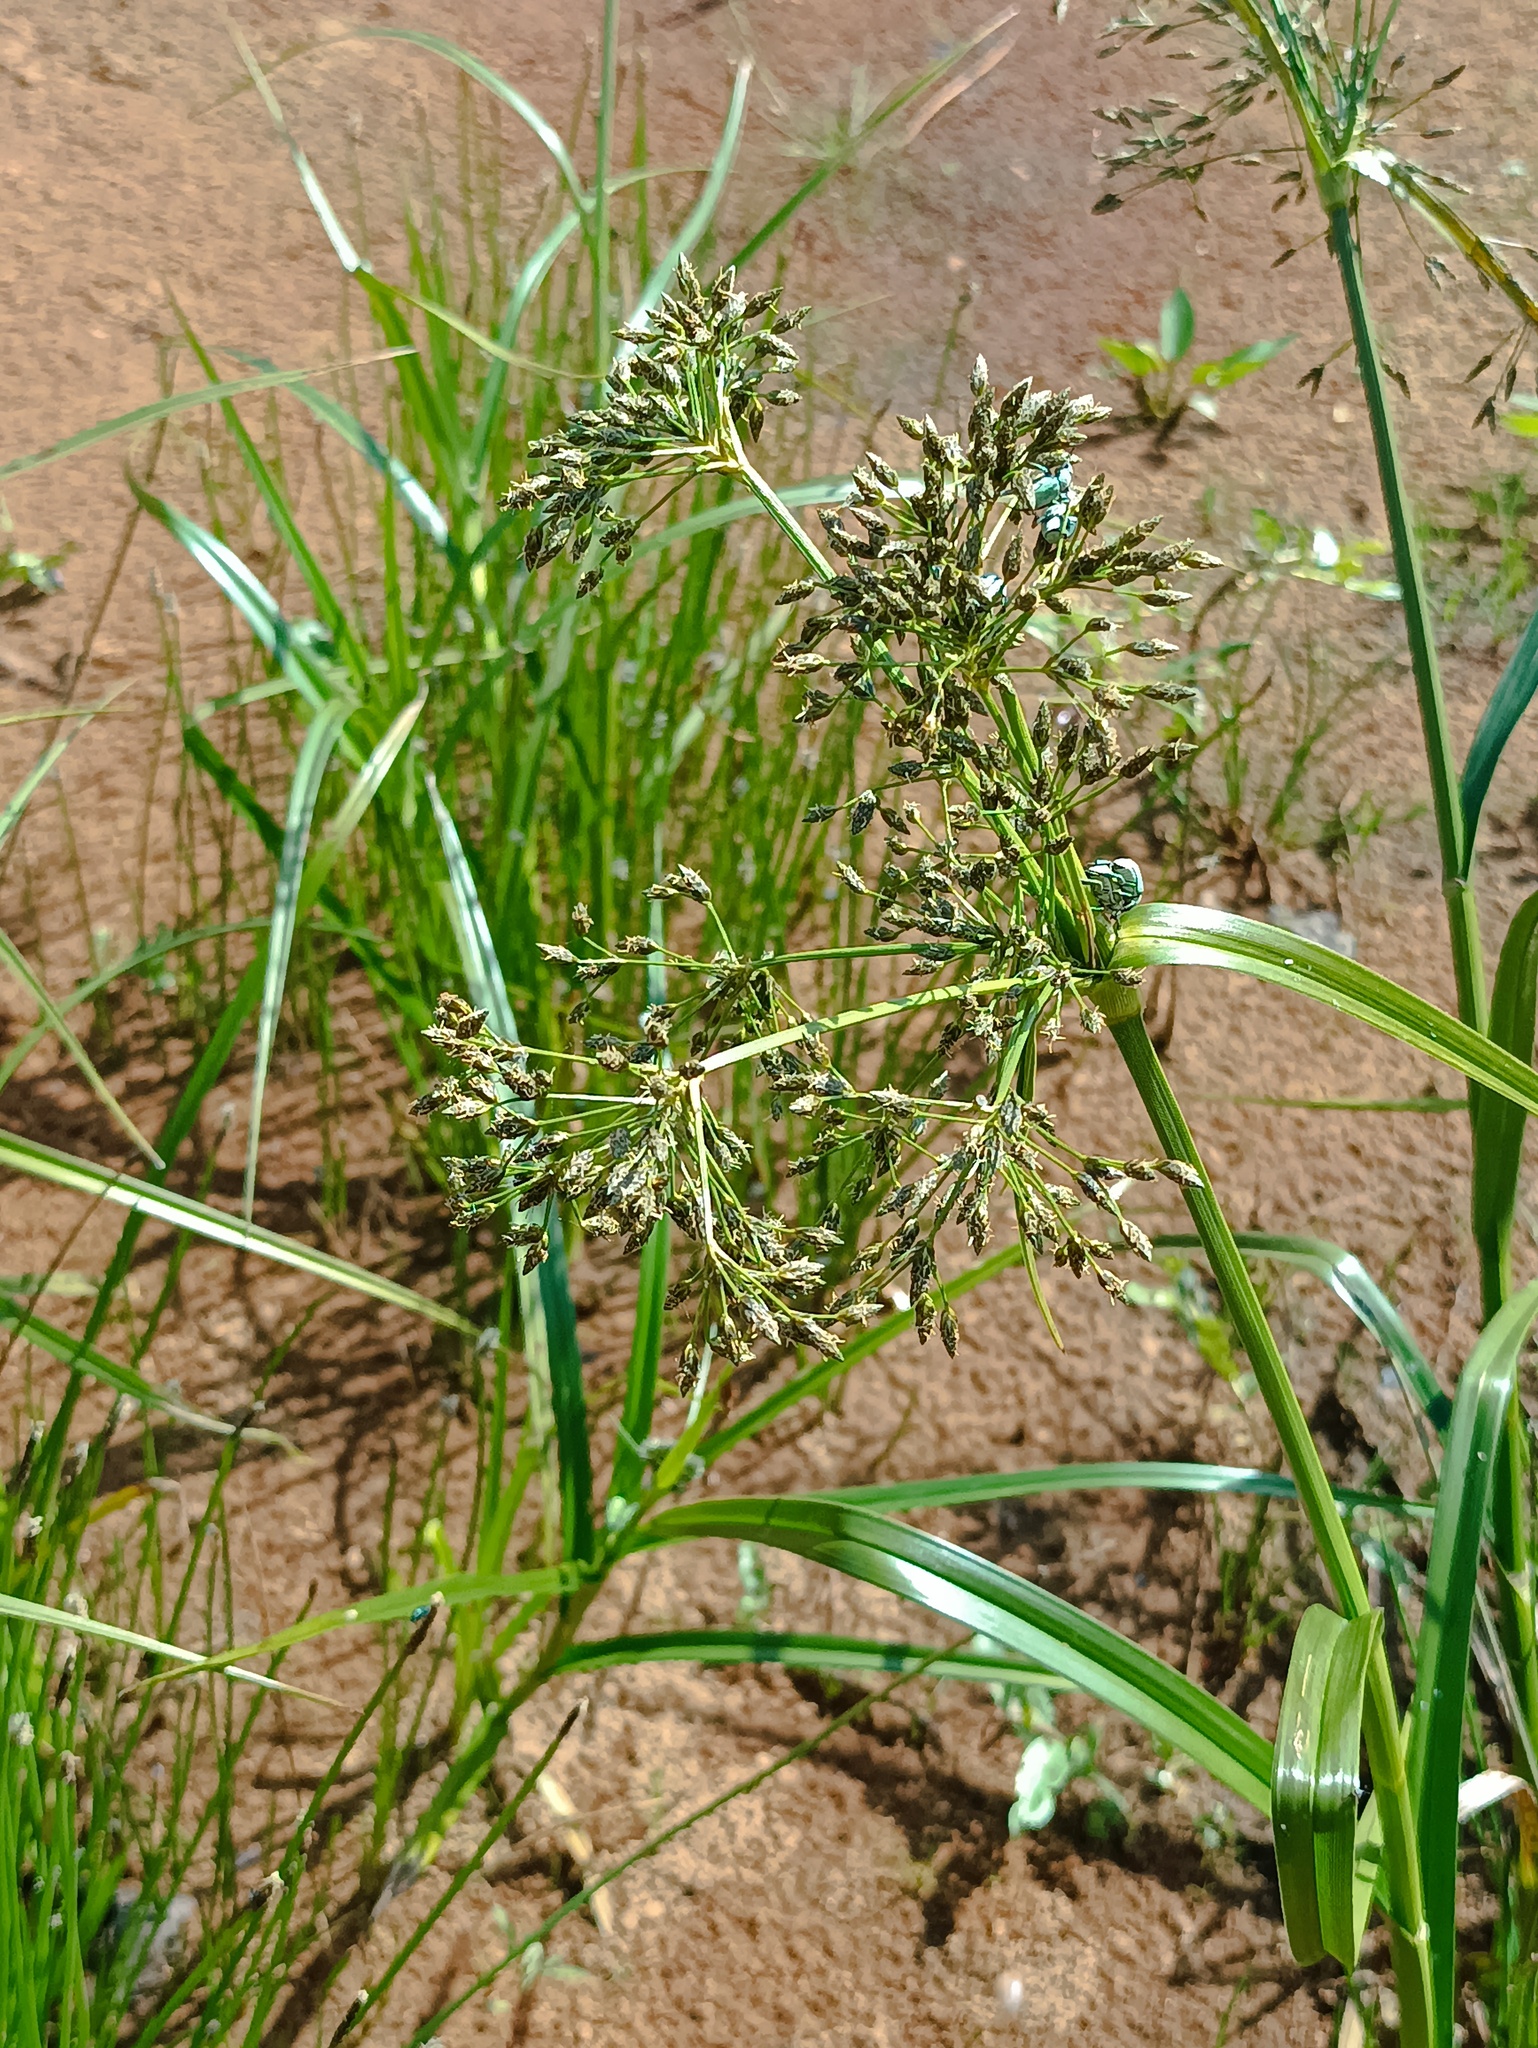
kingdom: Plantae
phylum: Tracheophyta
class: Liliopsida
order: Poales
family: Cyperaceae
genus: Scirpus
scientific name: Scirpus radicans
